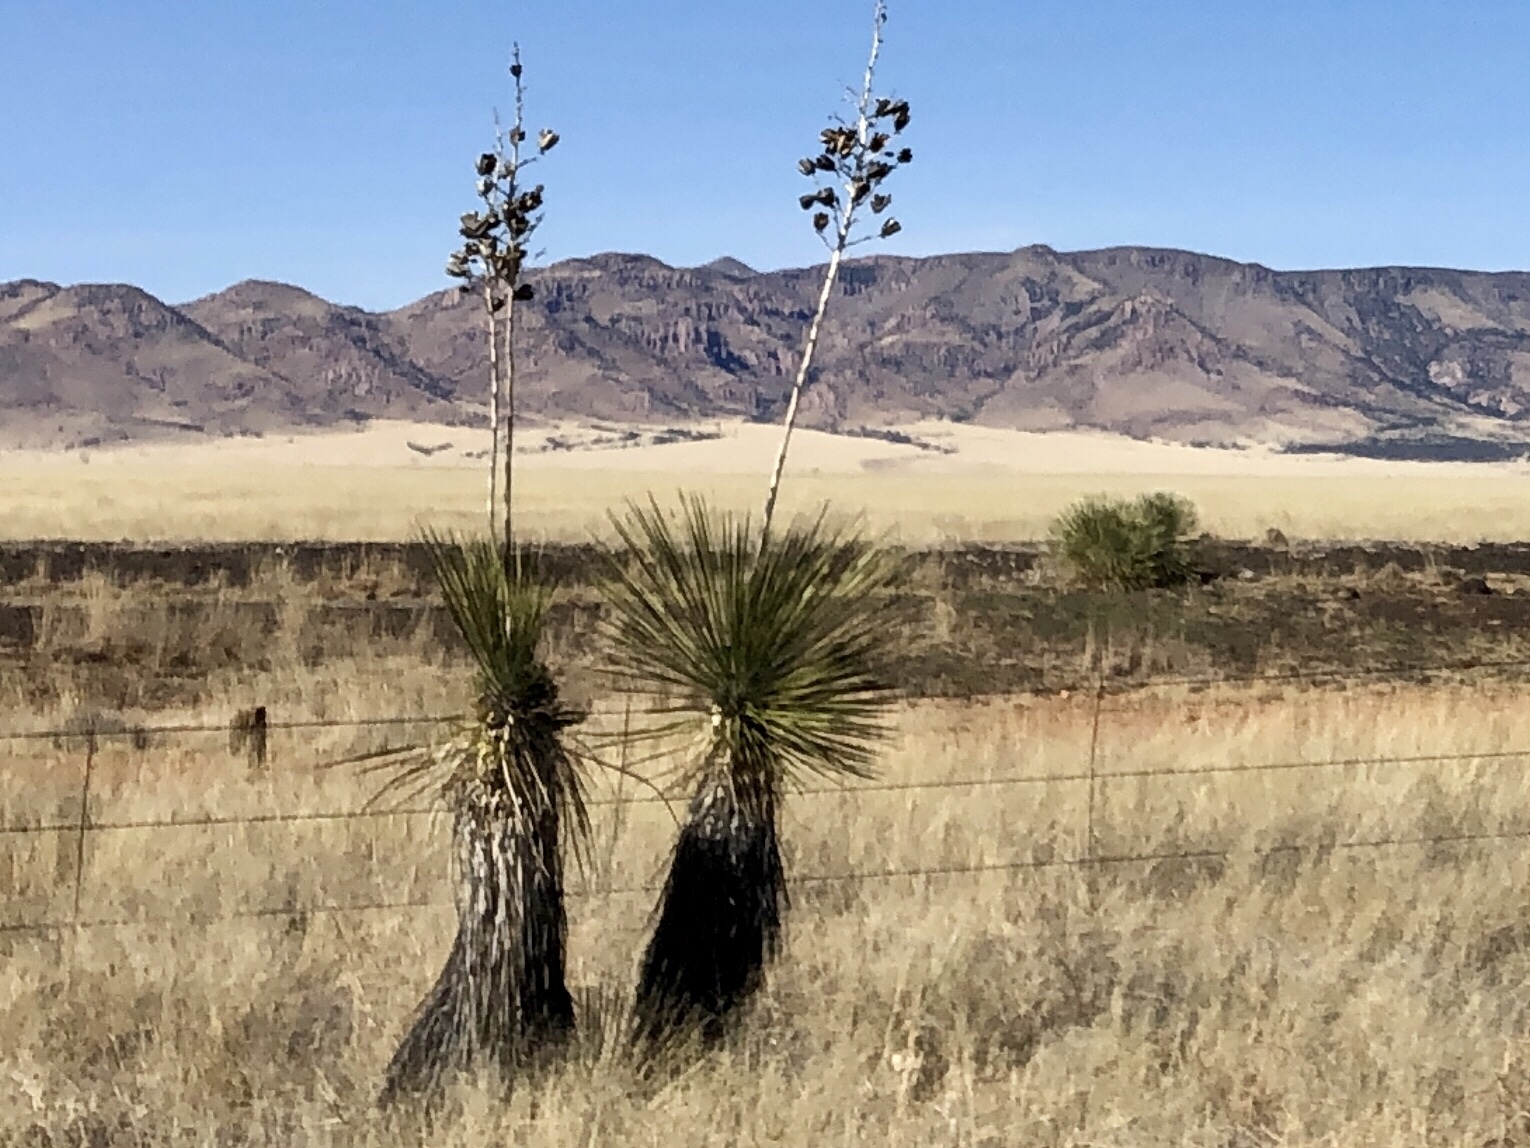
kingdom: Plantae
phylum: Tracheophyta
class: Liliopsida
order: Asparagales
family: Asparagaceae
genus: Yucca
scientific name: Yucca elata
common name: Palmella
